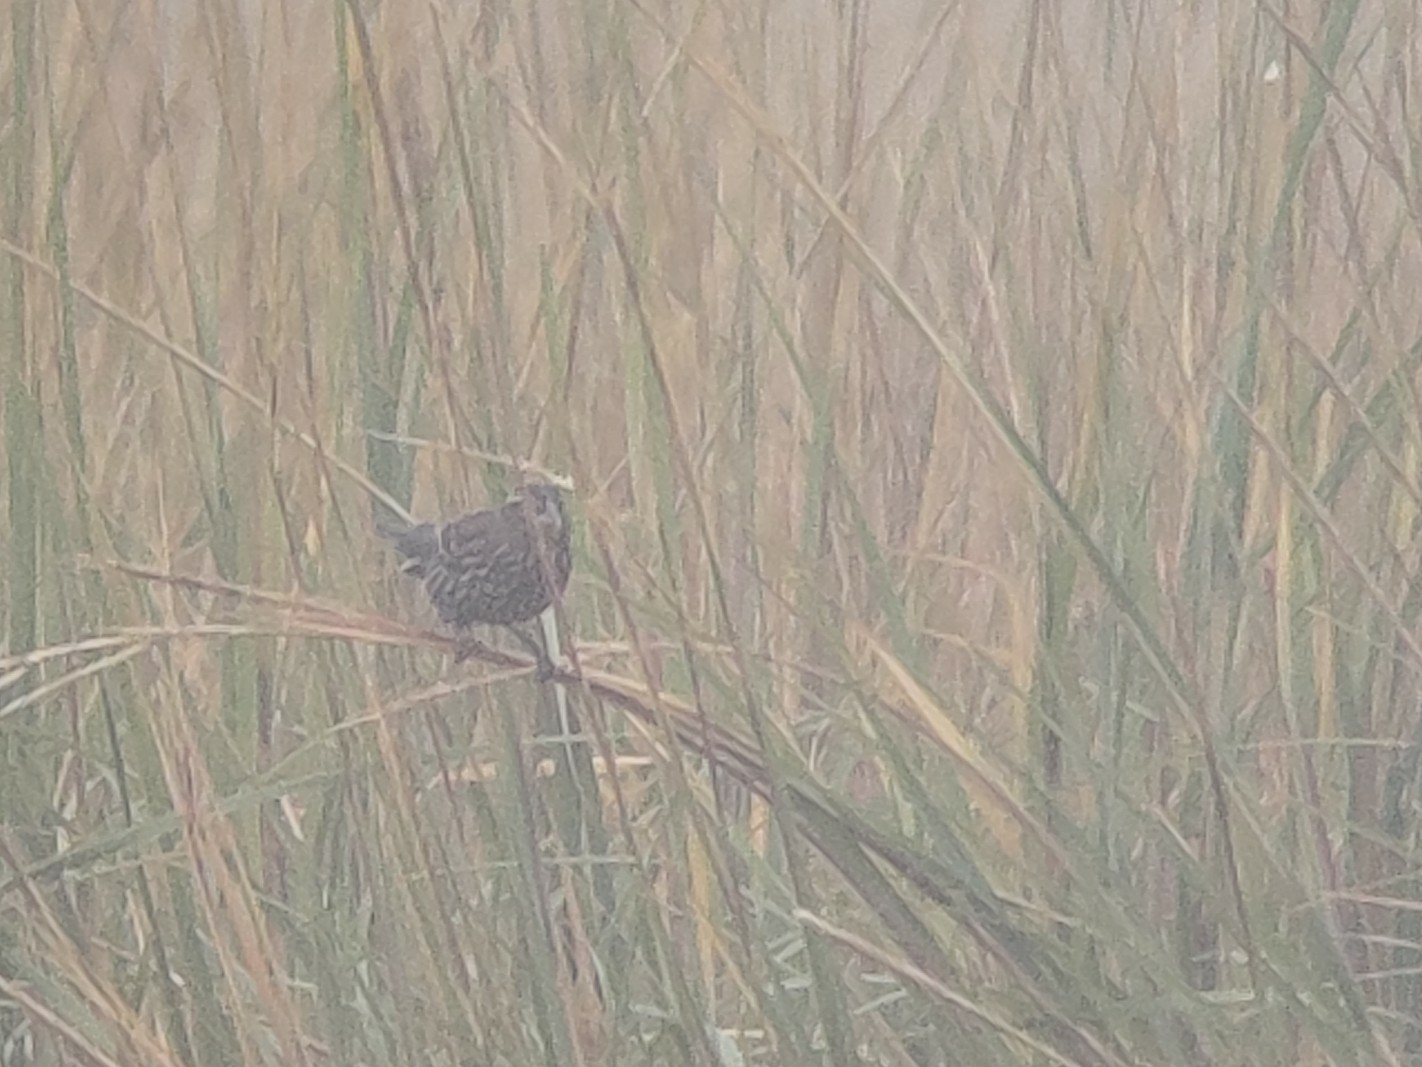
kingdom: Animalia
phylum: Chordata
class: Aves
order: Passeriformes
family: Icteridae
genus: Agelaius
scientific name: Agelaius phoeniceus
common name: Red-winged blackbird
